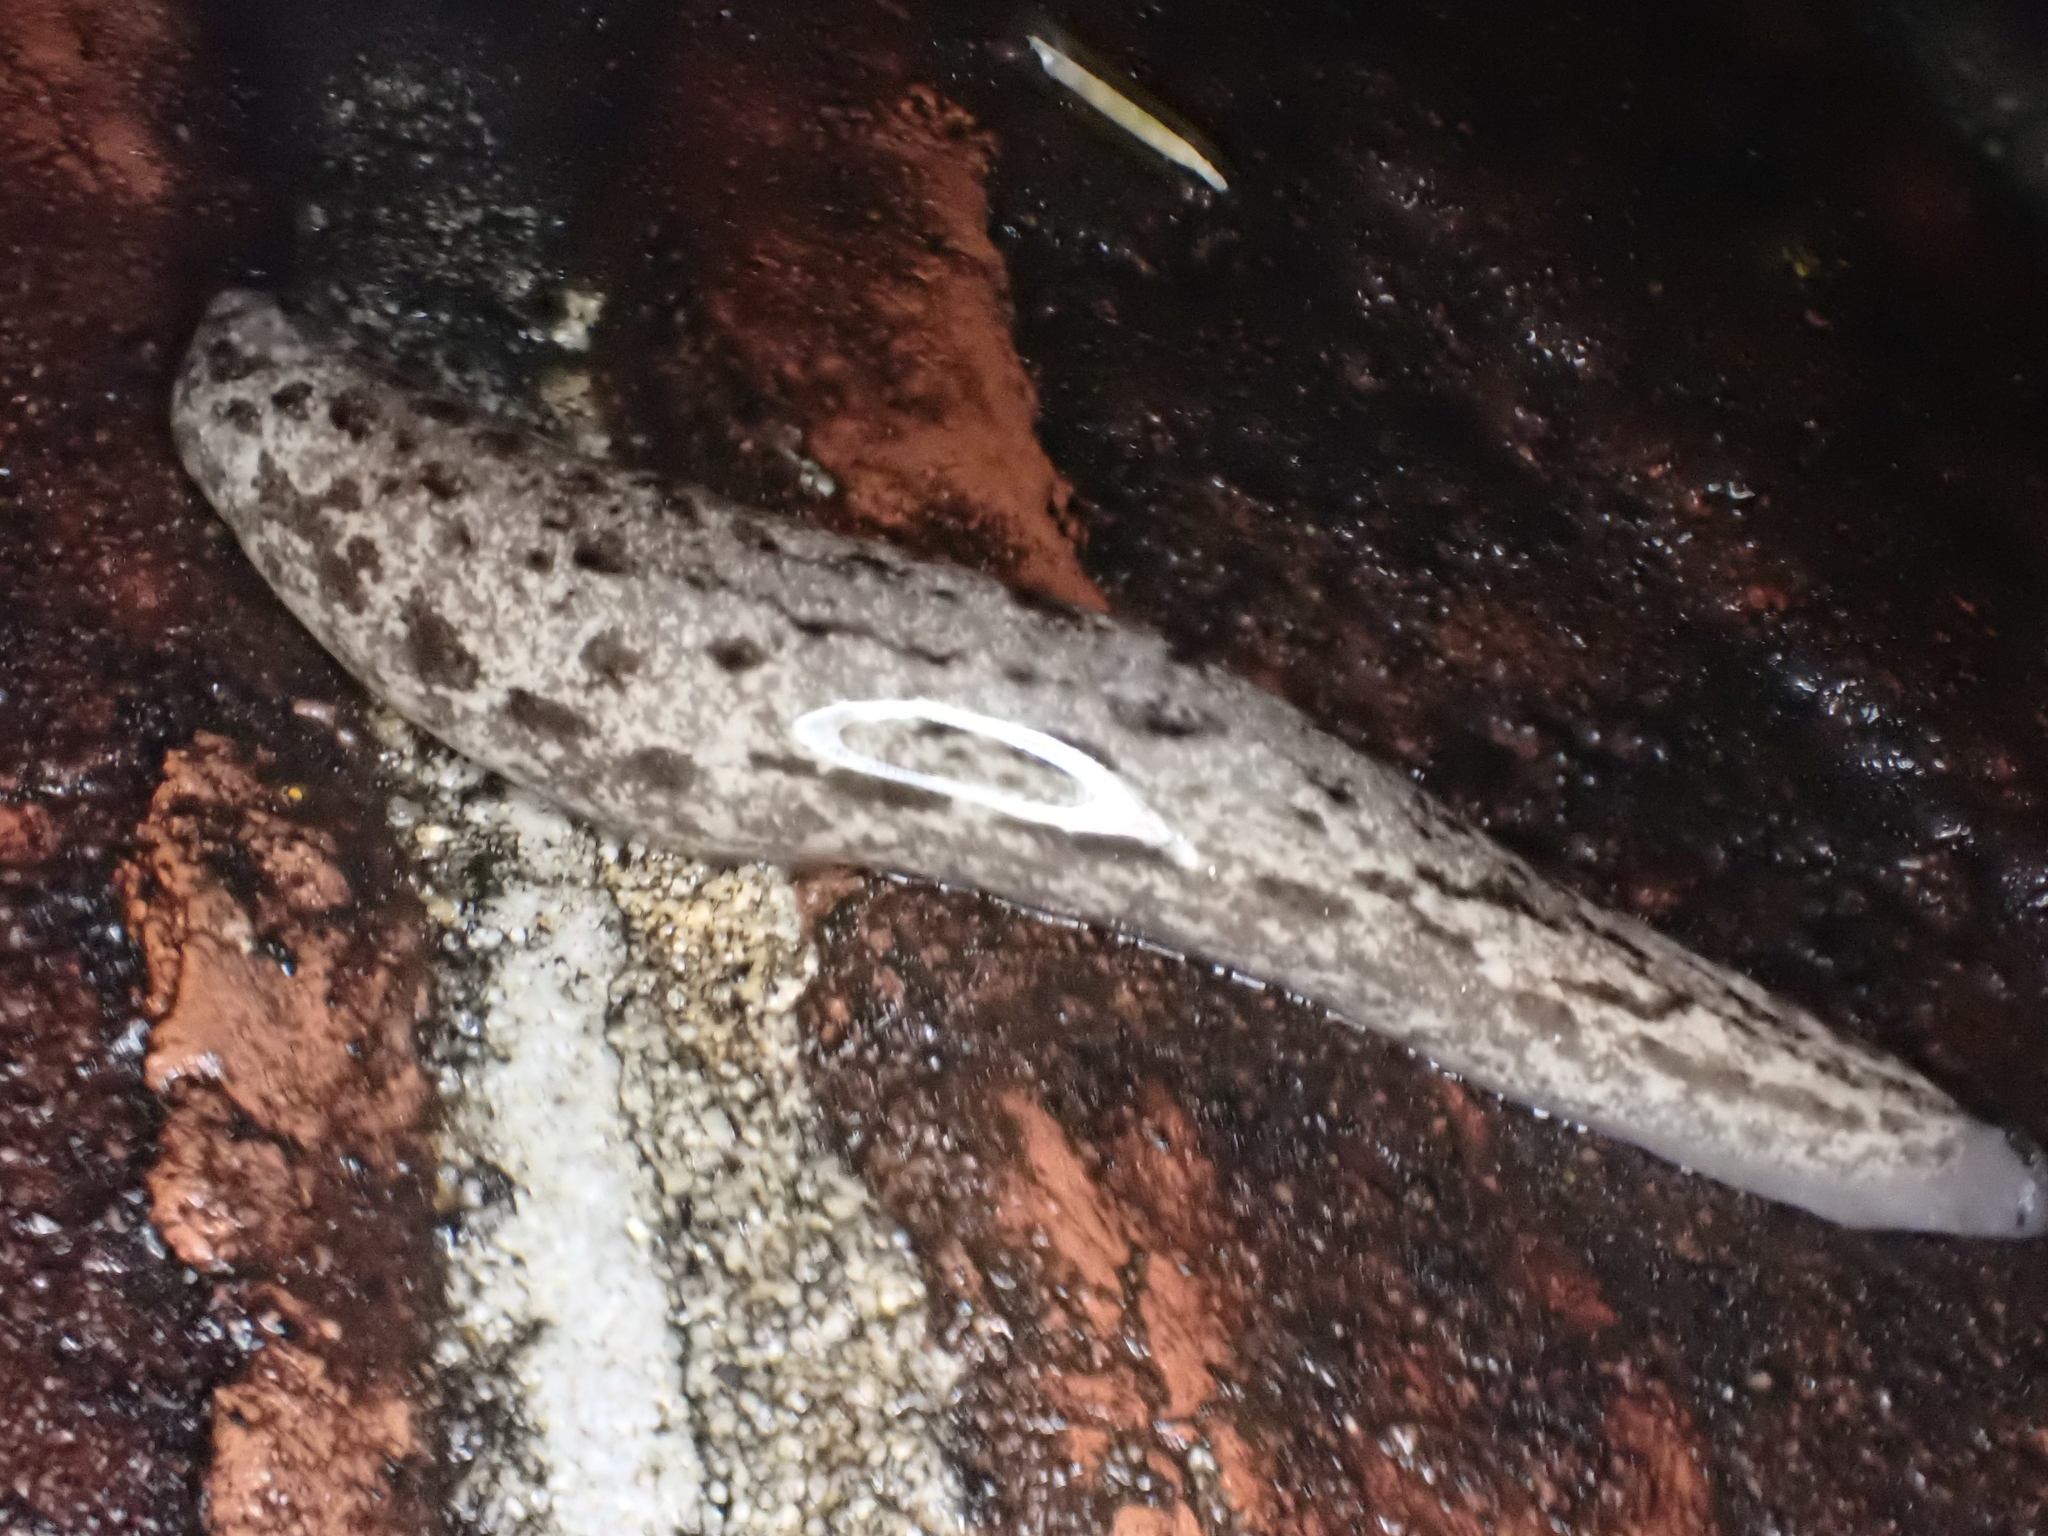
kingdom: Animalia
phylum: Mollusca
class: Gastropoda
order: Stylommatophora
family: Philomycidae
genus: Megapallifera
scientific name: Megapallifera mutabilis
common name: Changeable mantleslug
